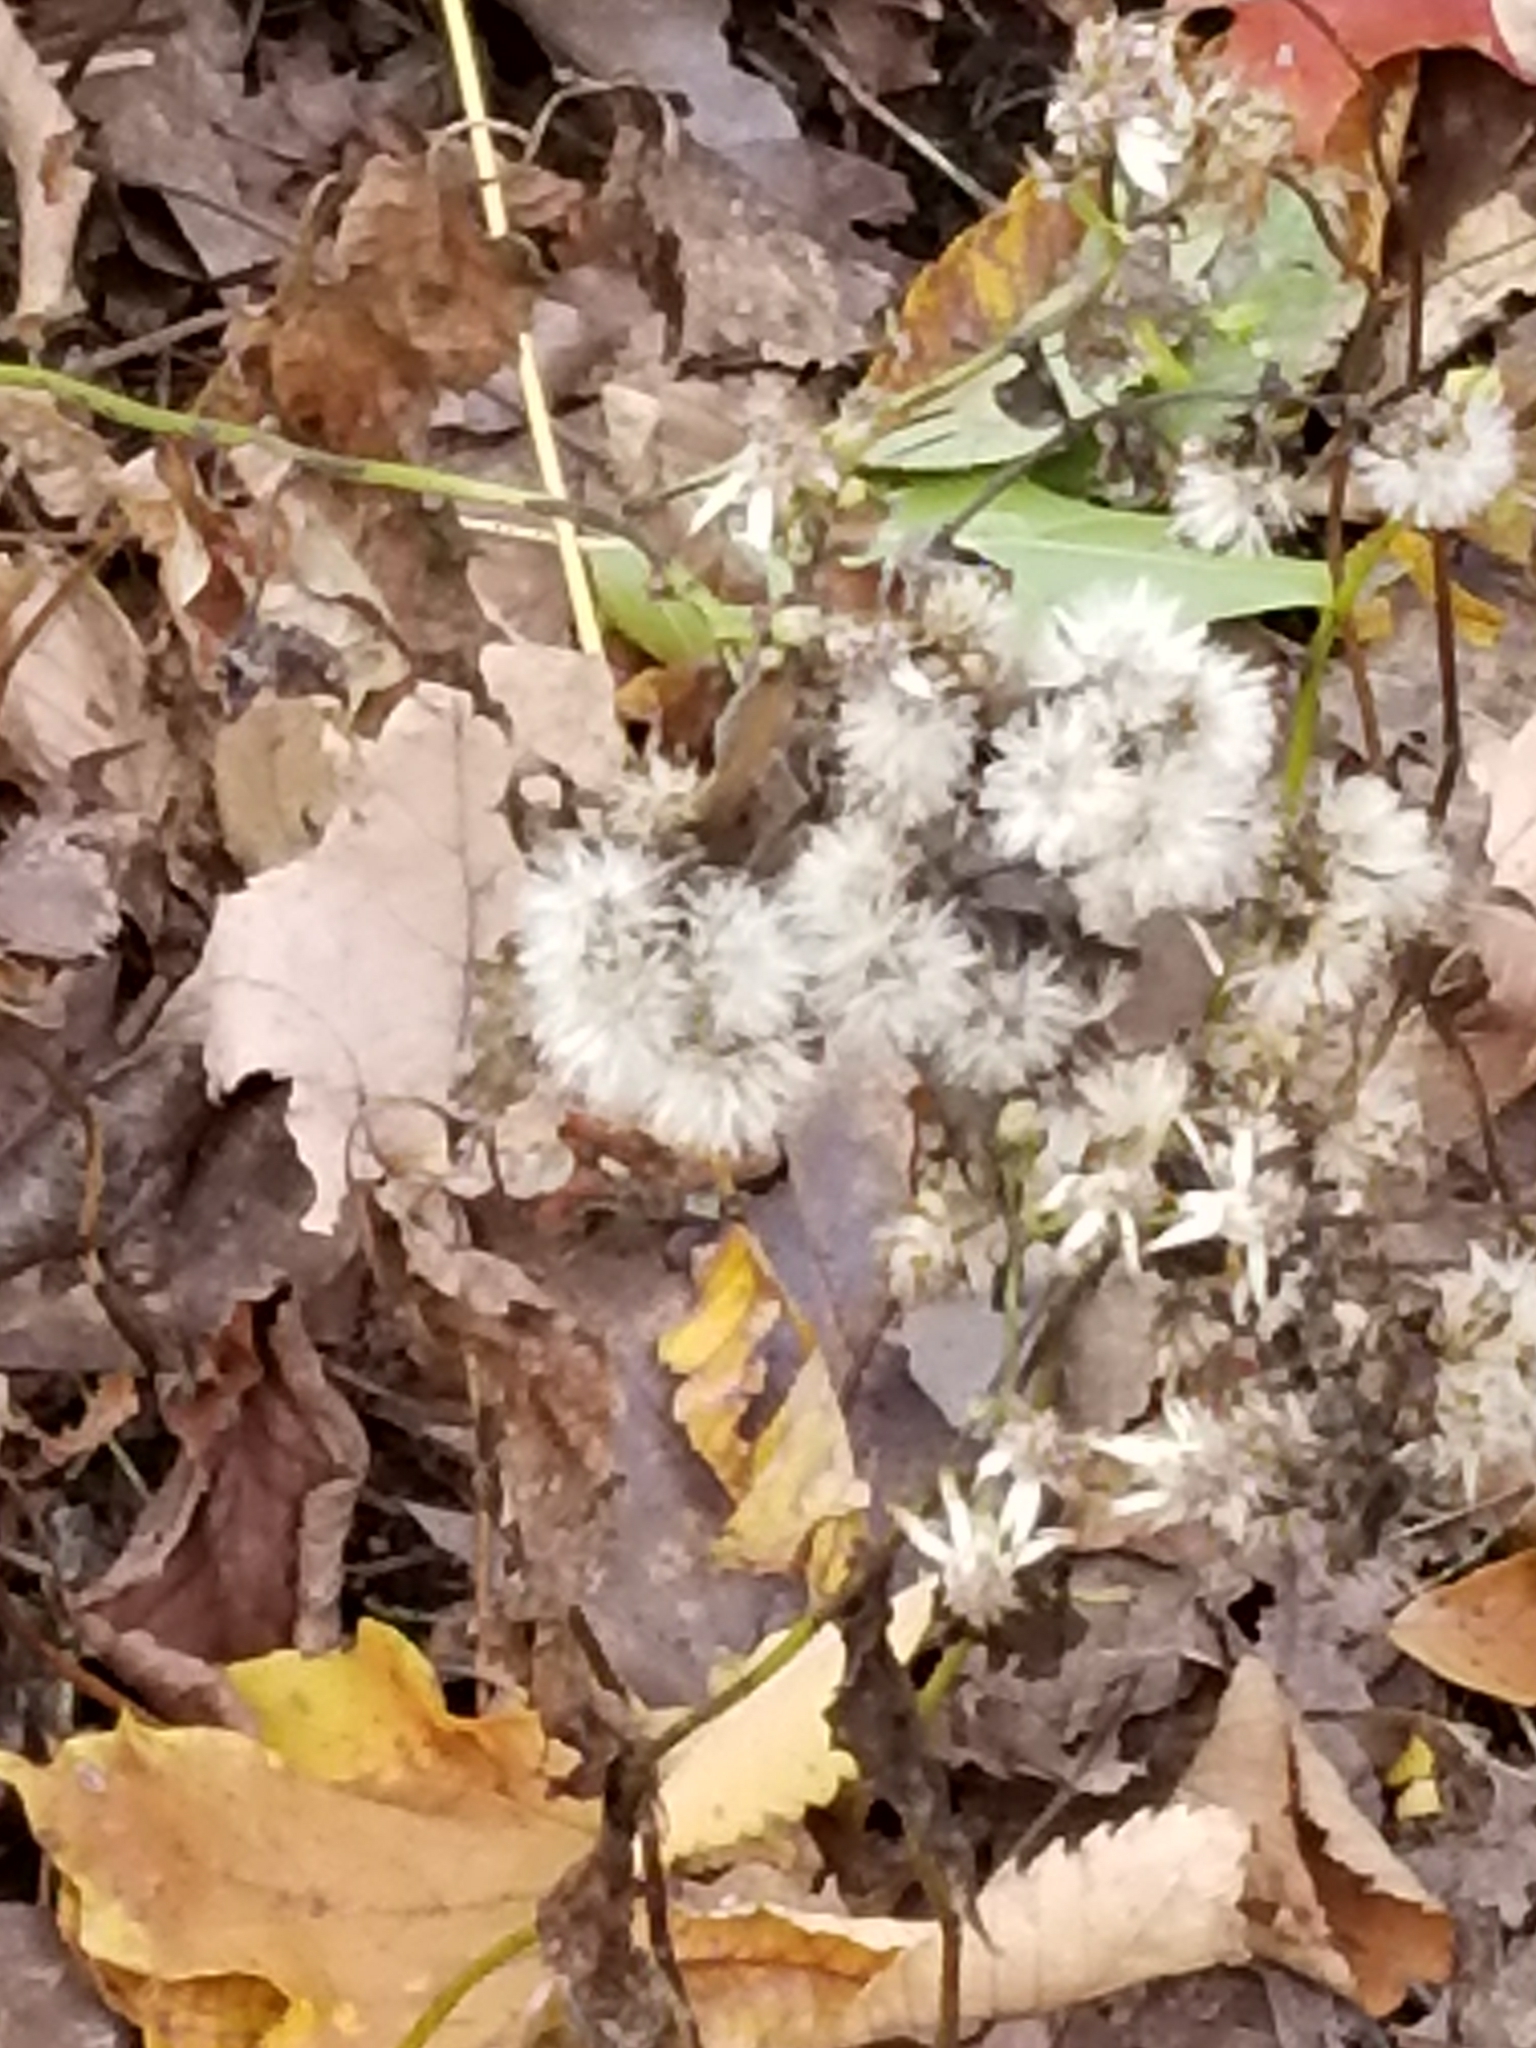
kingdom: Plantae
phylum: Tracheophyta
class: Magnoliopsida
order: Asterales
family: Asteraceae
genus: Eurybia
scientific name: Eurybia divaricata
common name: White wood aster
